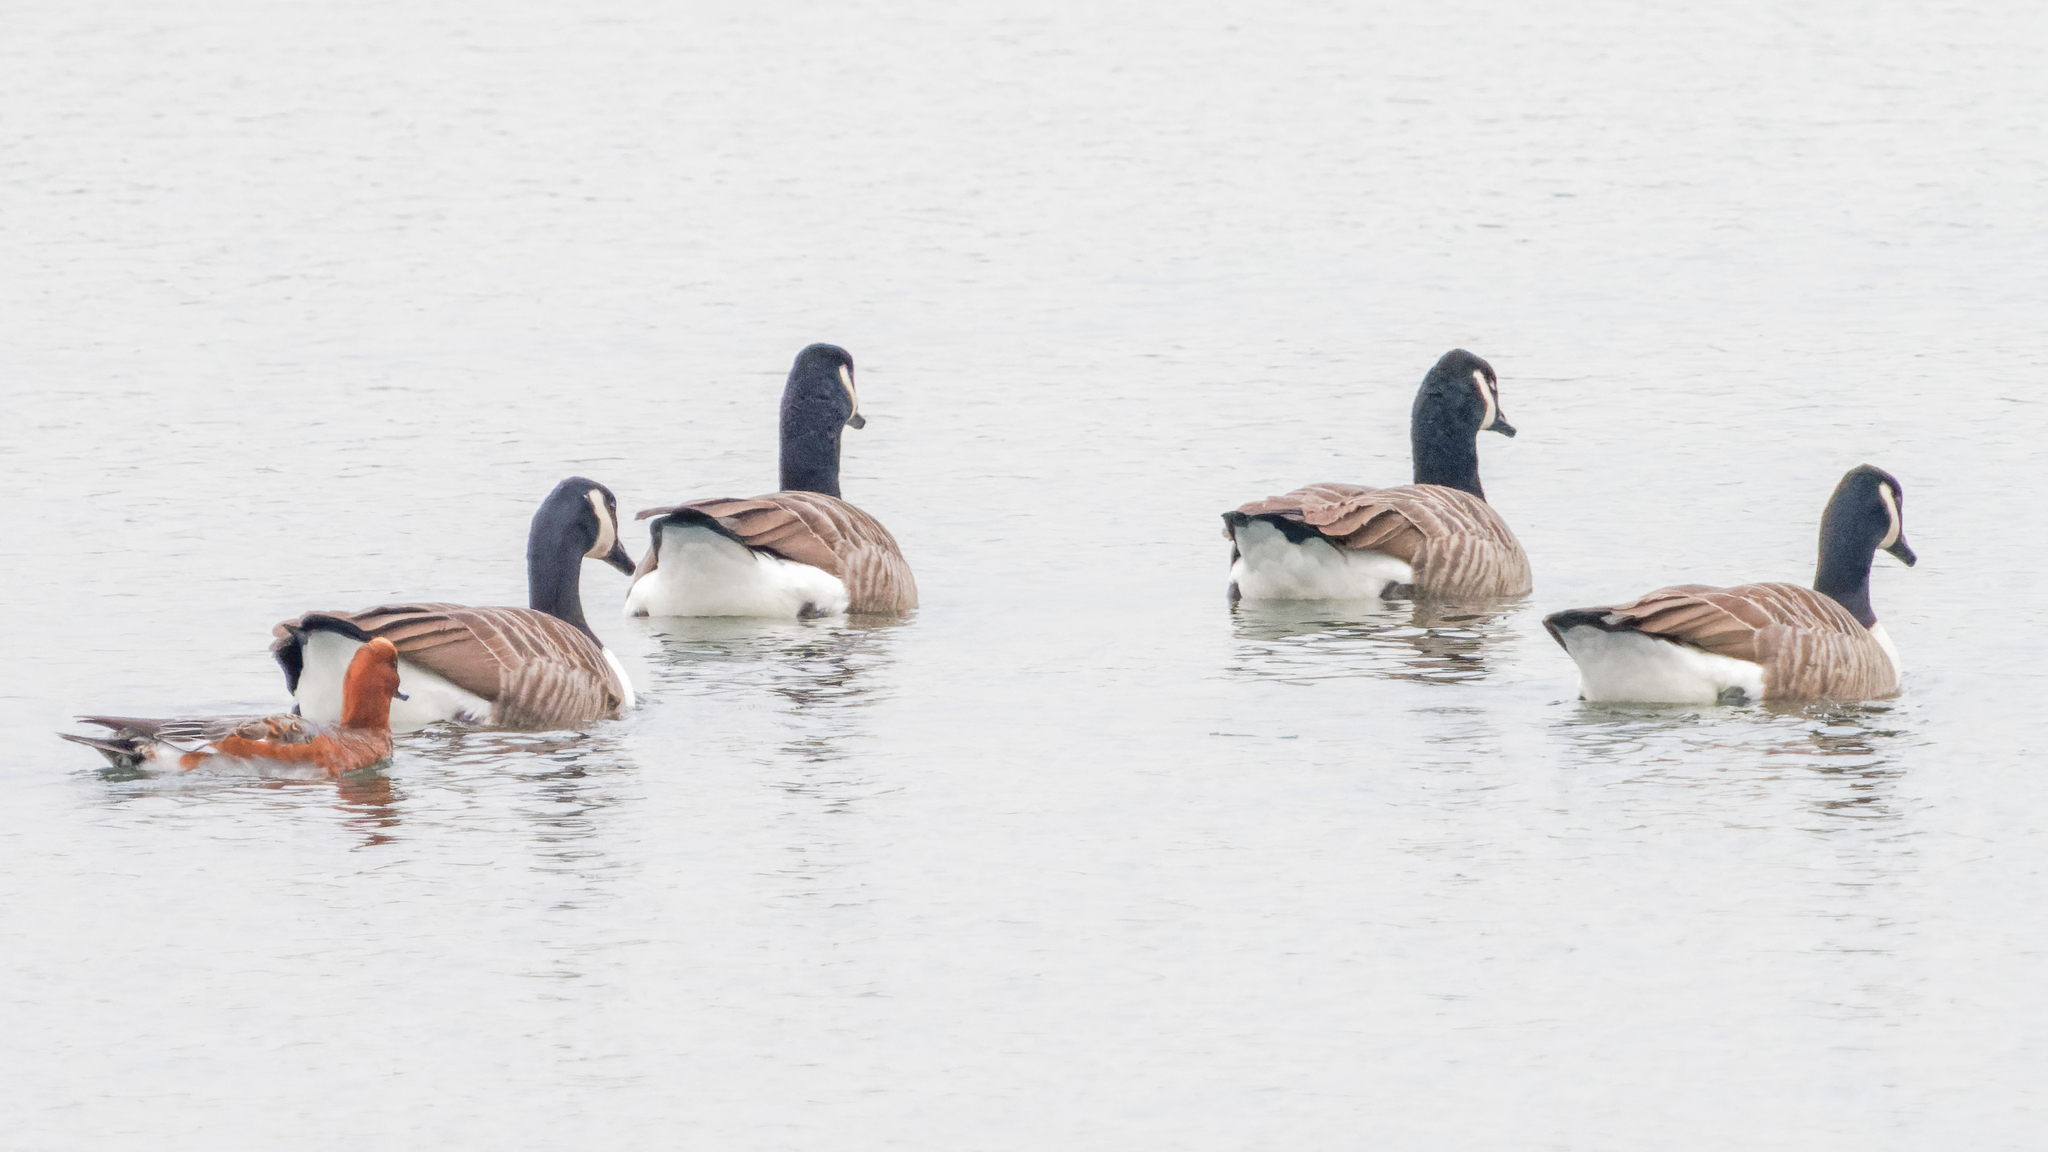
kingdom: Animalia
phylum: Chordata
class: Aves
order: Anseriformes
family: Anatidae
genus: Branta
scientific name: Branta canadensis
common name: Canada goose
